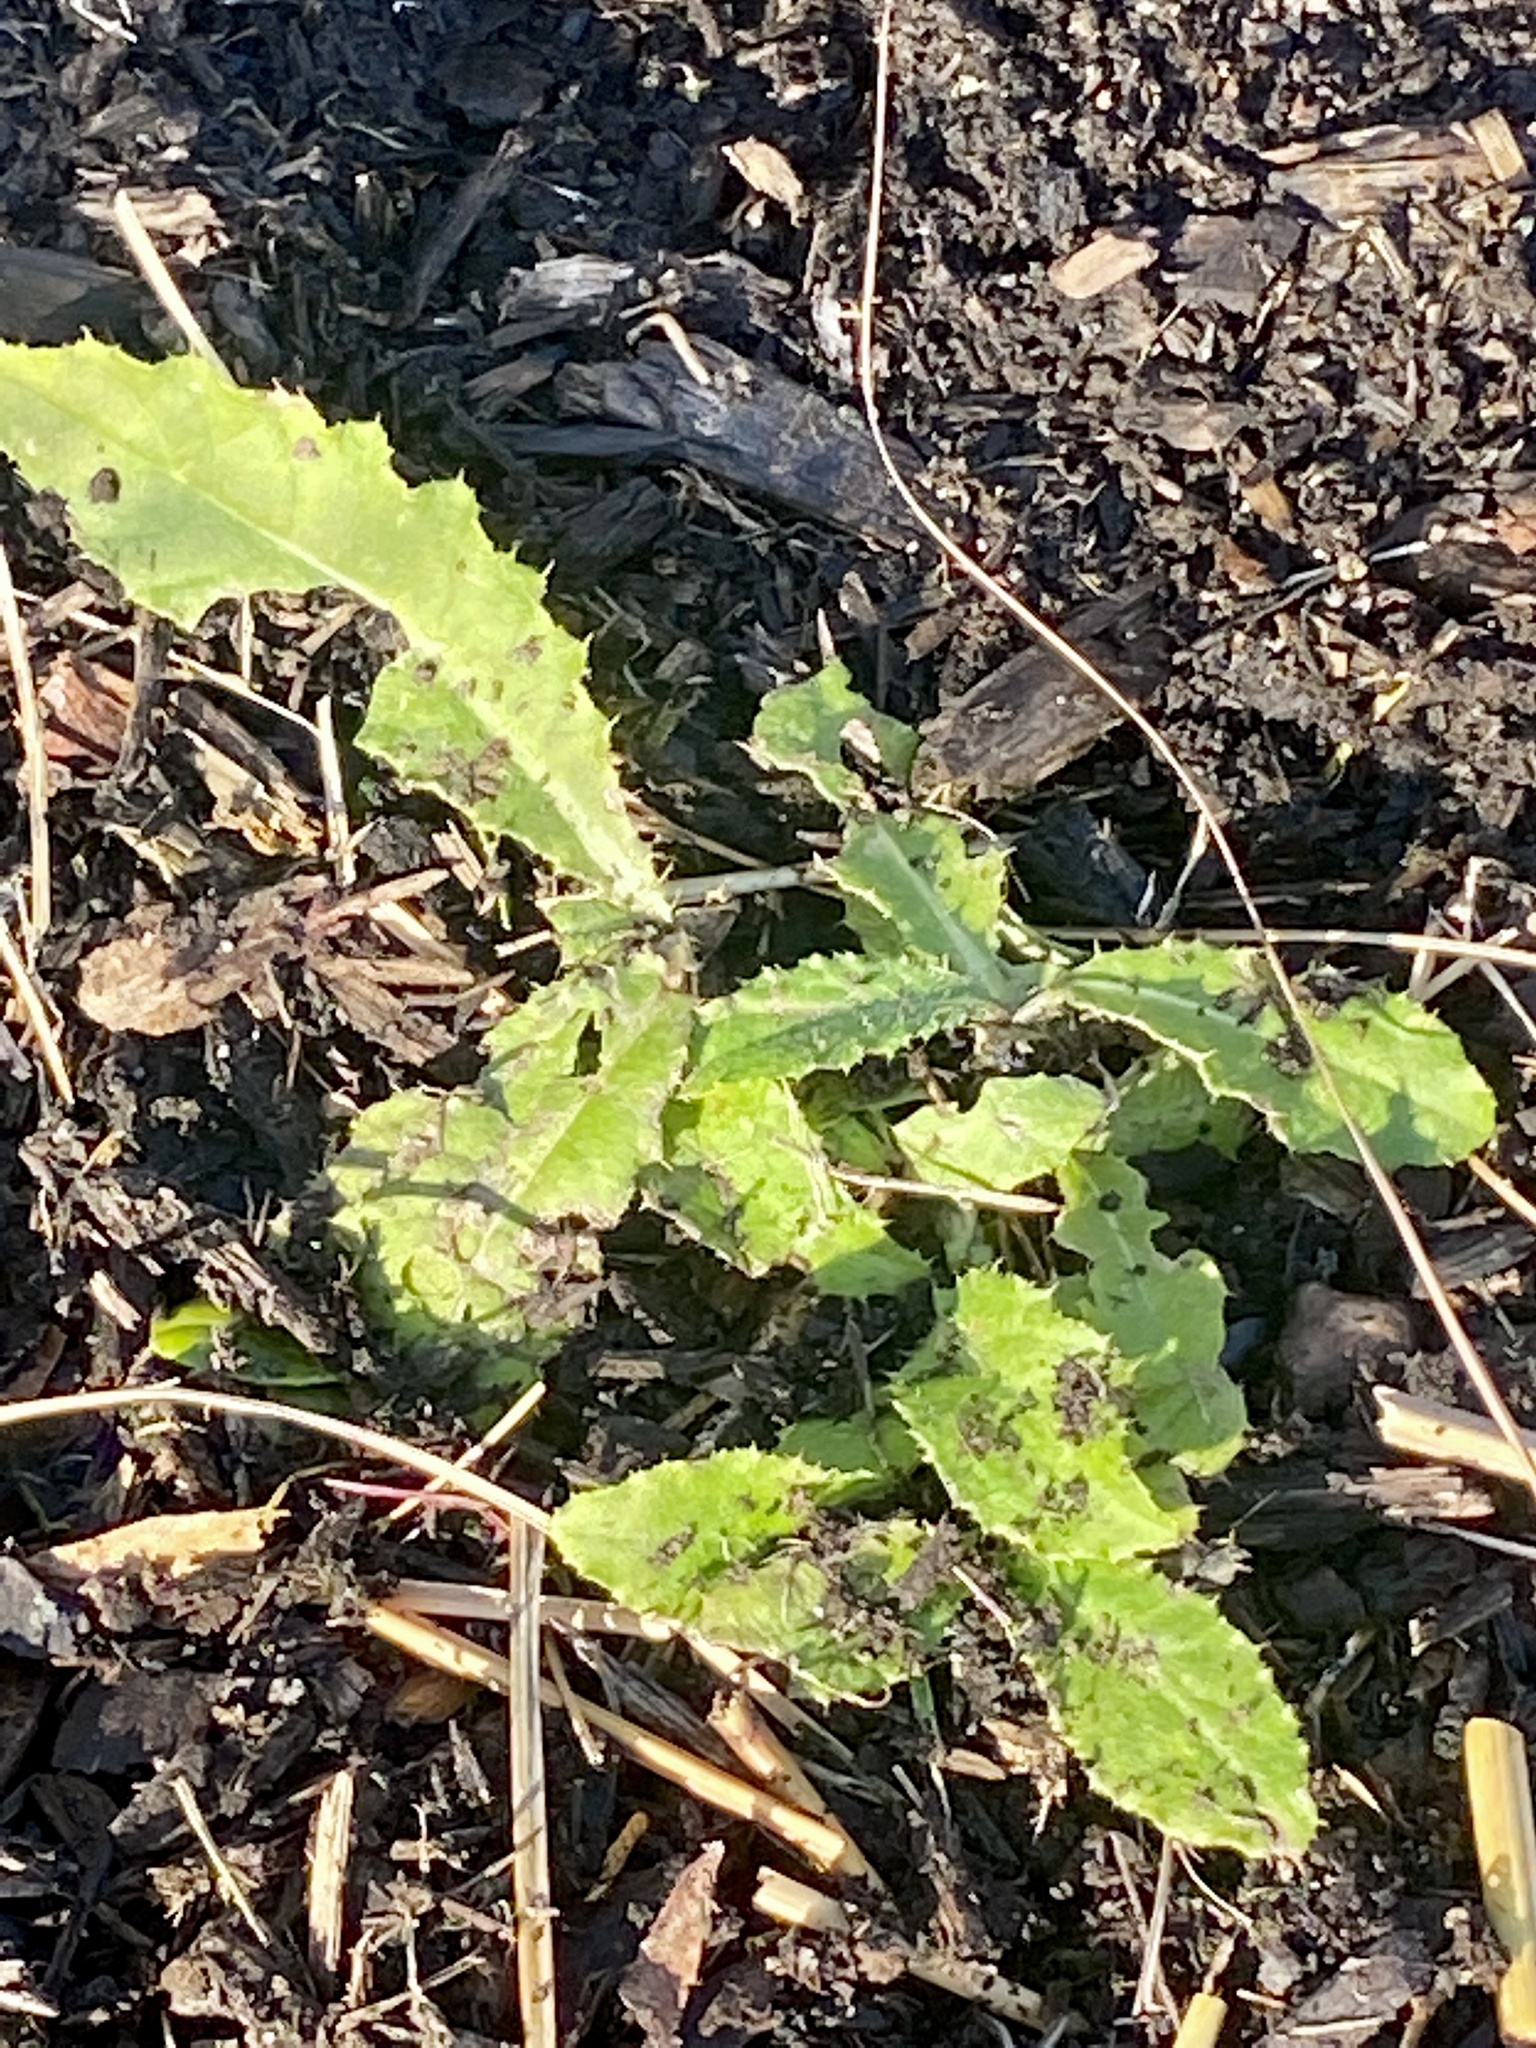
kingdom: Plantae
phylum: Tracheophyta
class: Magnoliopsida
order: Asterales
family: Asteraceae
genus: Cirsium
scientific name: Cirsium arvense
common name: Creeping thistle
